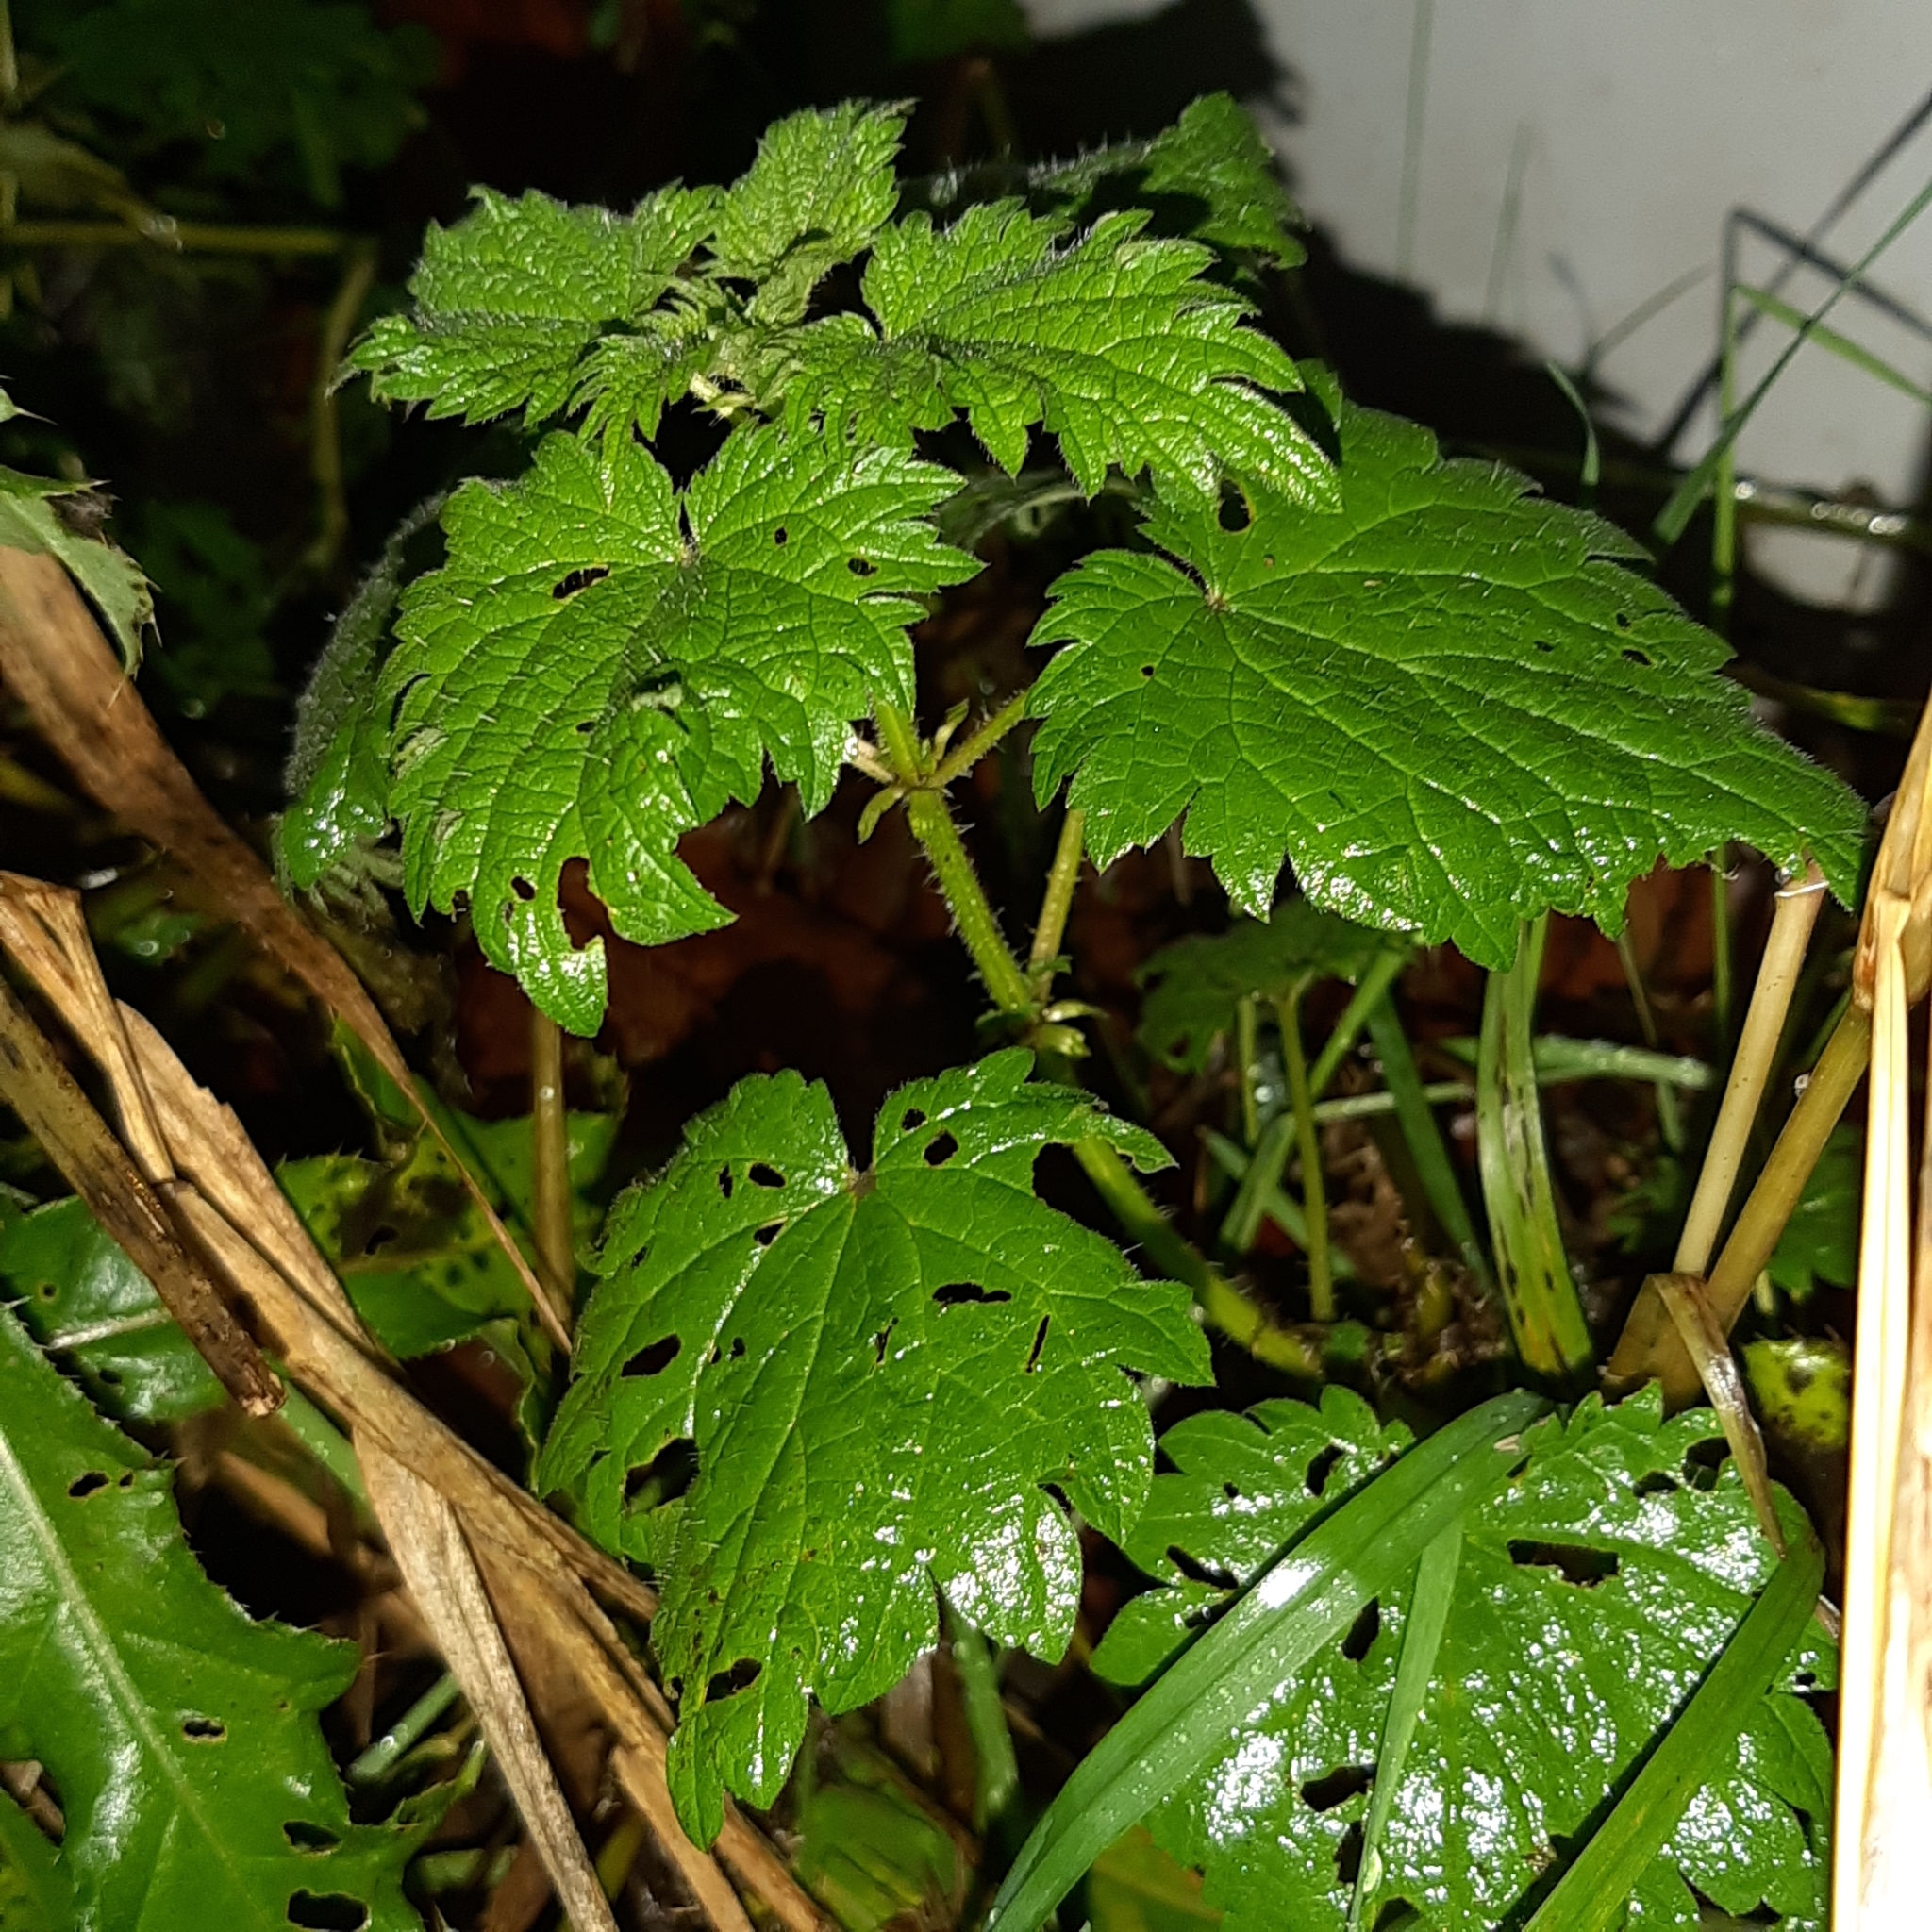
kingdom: Plantae
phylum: Tracheophyta
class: Magnoliopsida
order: Rosales
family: Urticaceae
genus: Urtica
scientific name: Urtica dioica
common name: Common nettle
